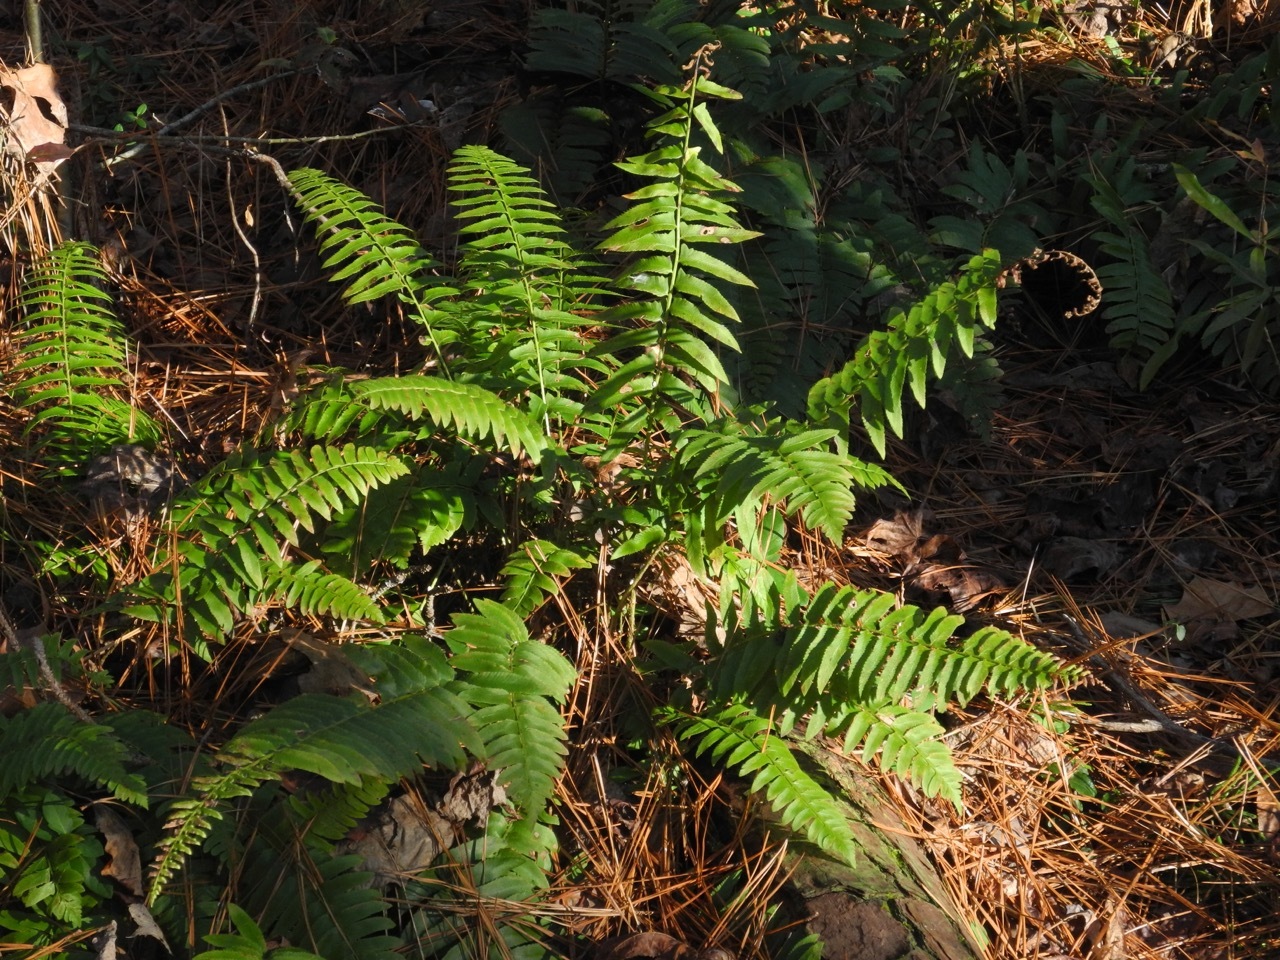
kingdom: Plantae
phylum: Tracheophyta
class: Polypodiopsida
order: Polypodiales
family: Dryopteridaceae
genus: Polystichum
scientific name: Polystichum acrostichoides
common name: Christmas fern
